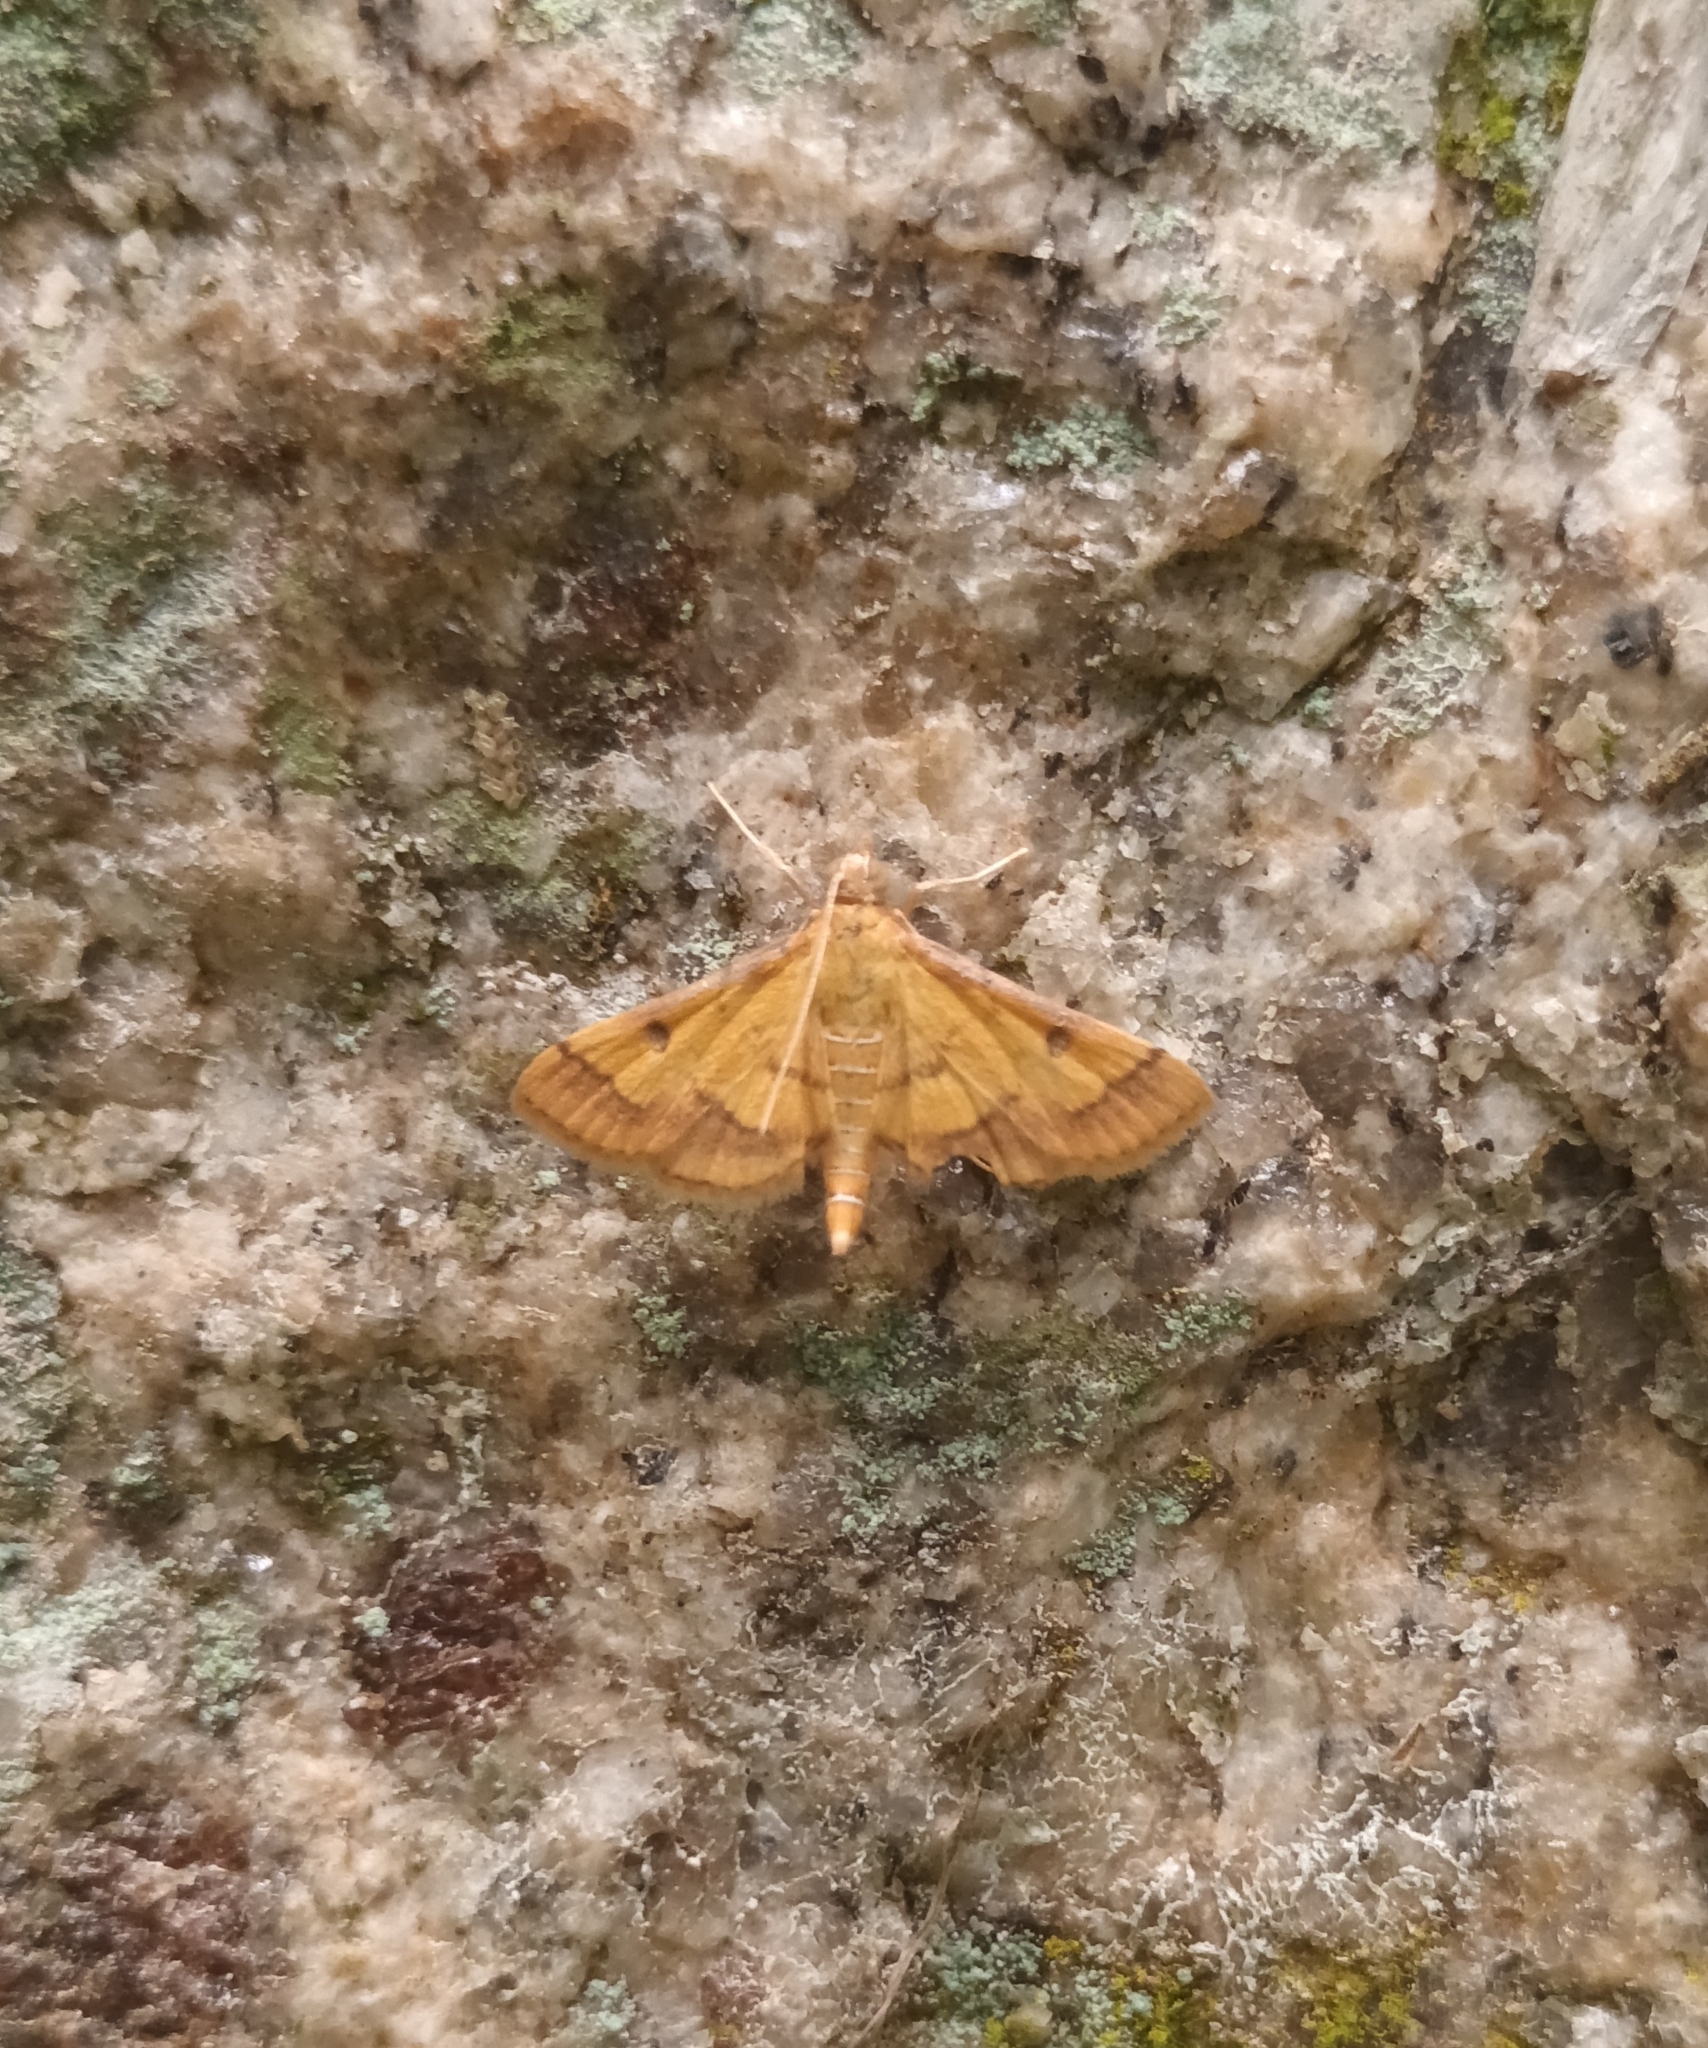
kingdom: Animalia
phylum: Arthropoda
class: Insecta
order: Lepidoptera
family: Crambidae
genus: Ischnurges
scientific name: Ischnurges luteomarginalis
